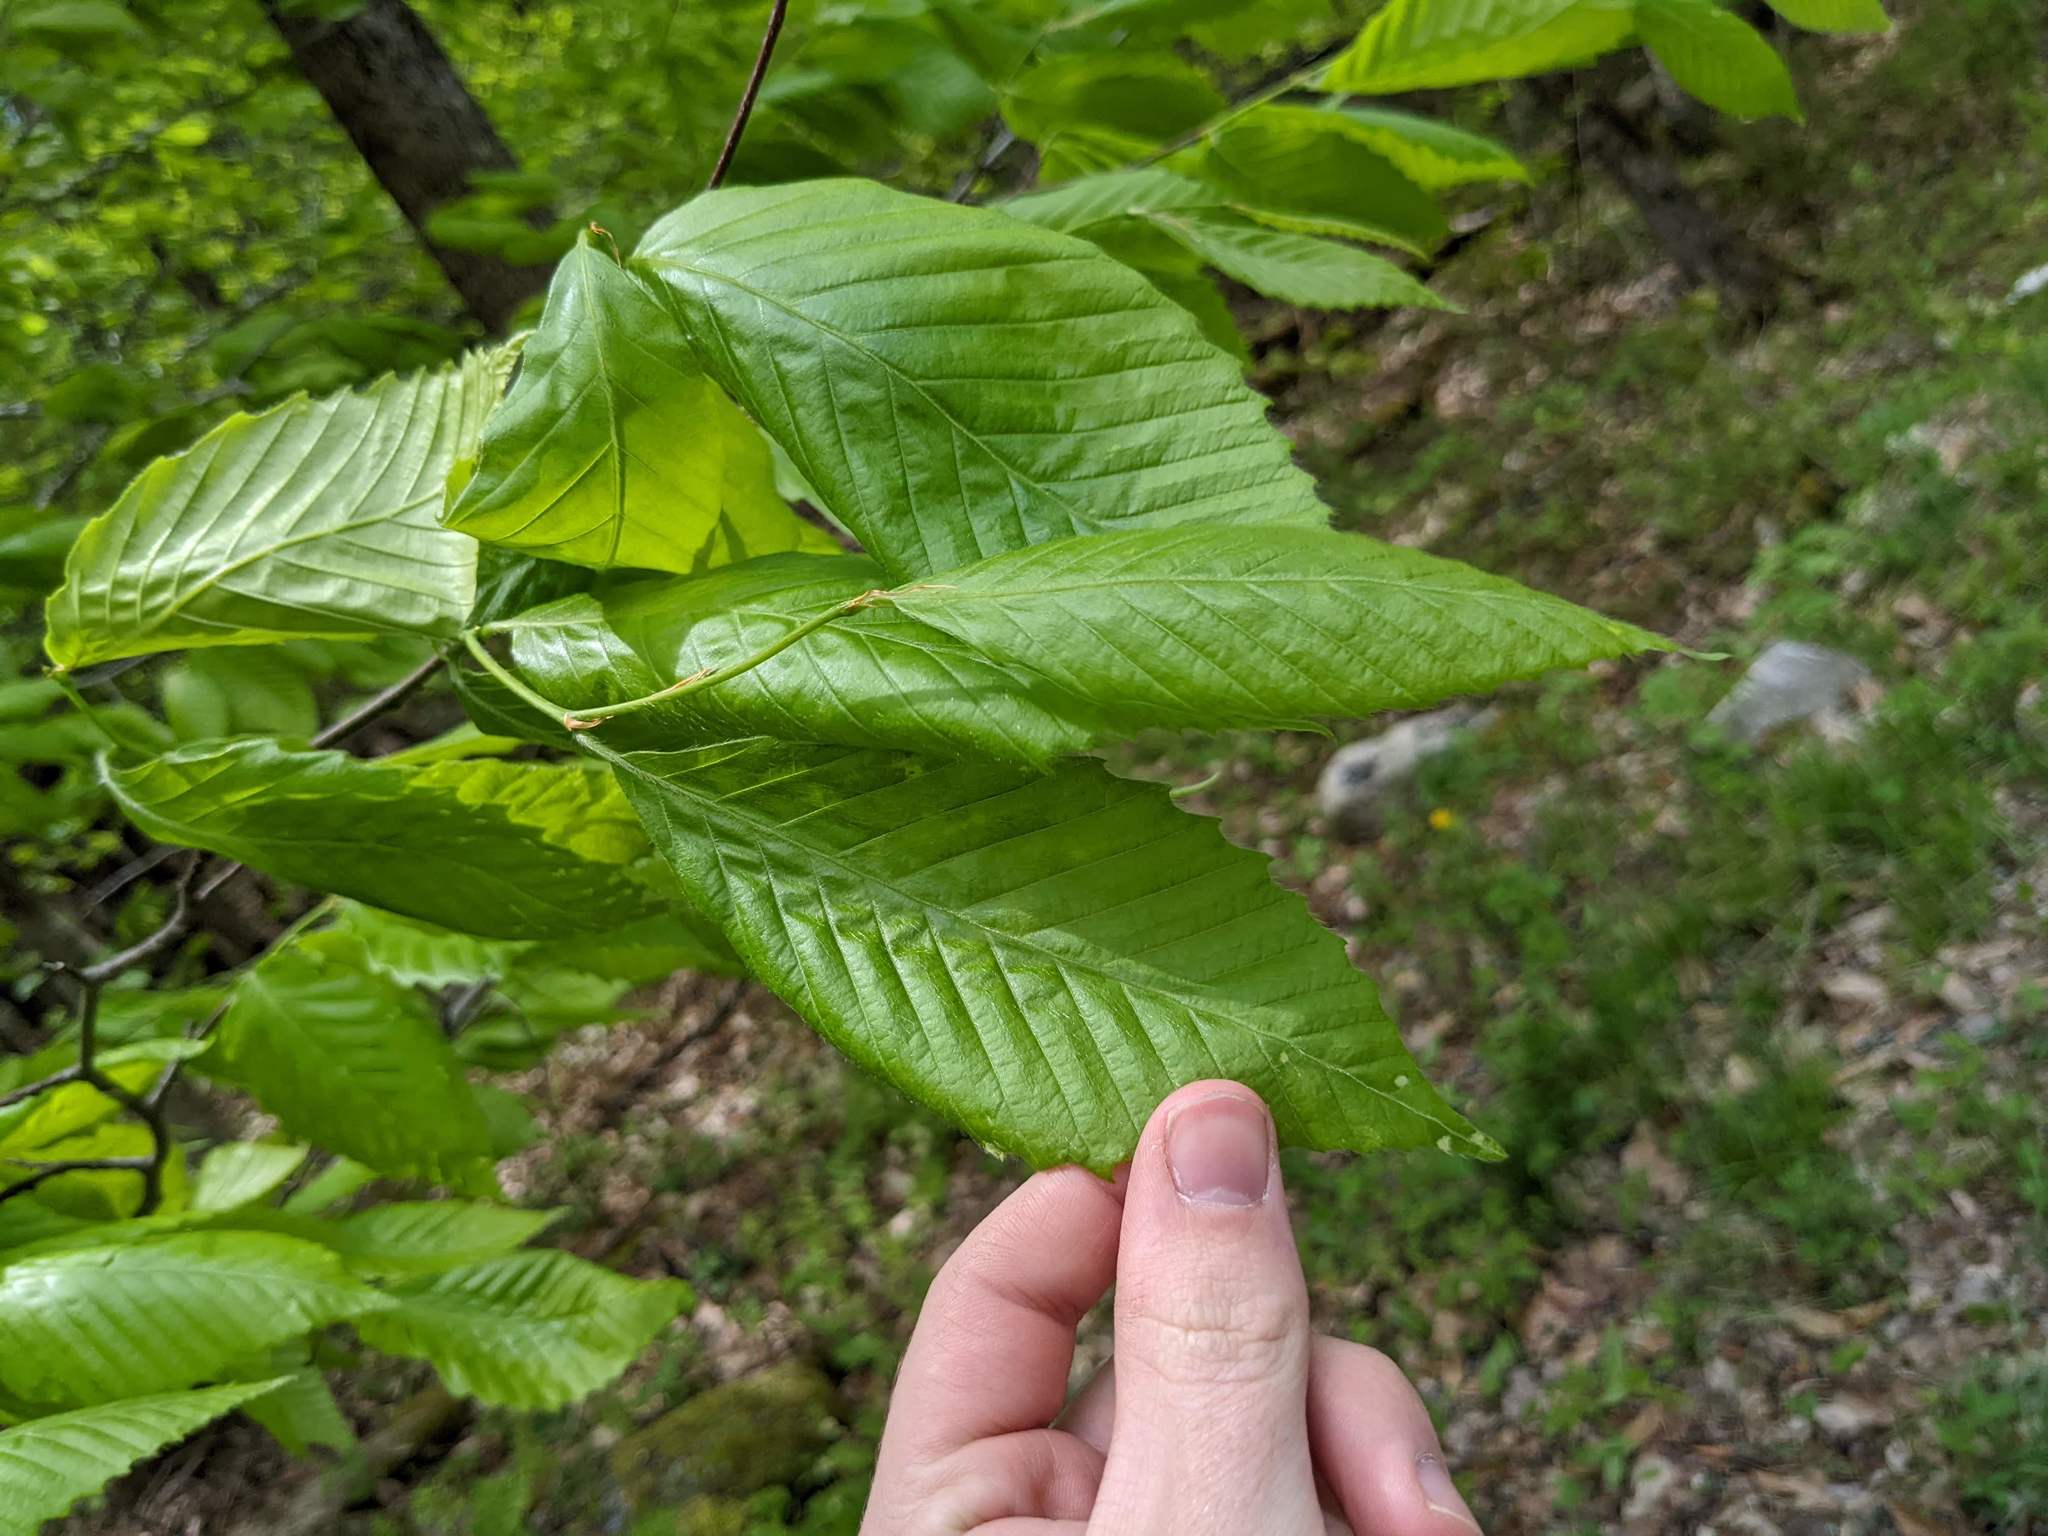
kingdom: Plantae
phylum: Tracheophyta
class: Magnoliopsida
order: Fagales
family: Fagaceae
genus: Fagus
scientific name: Fagus grandifolia
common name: American beech
